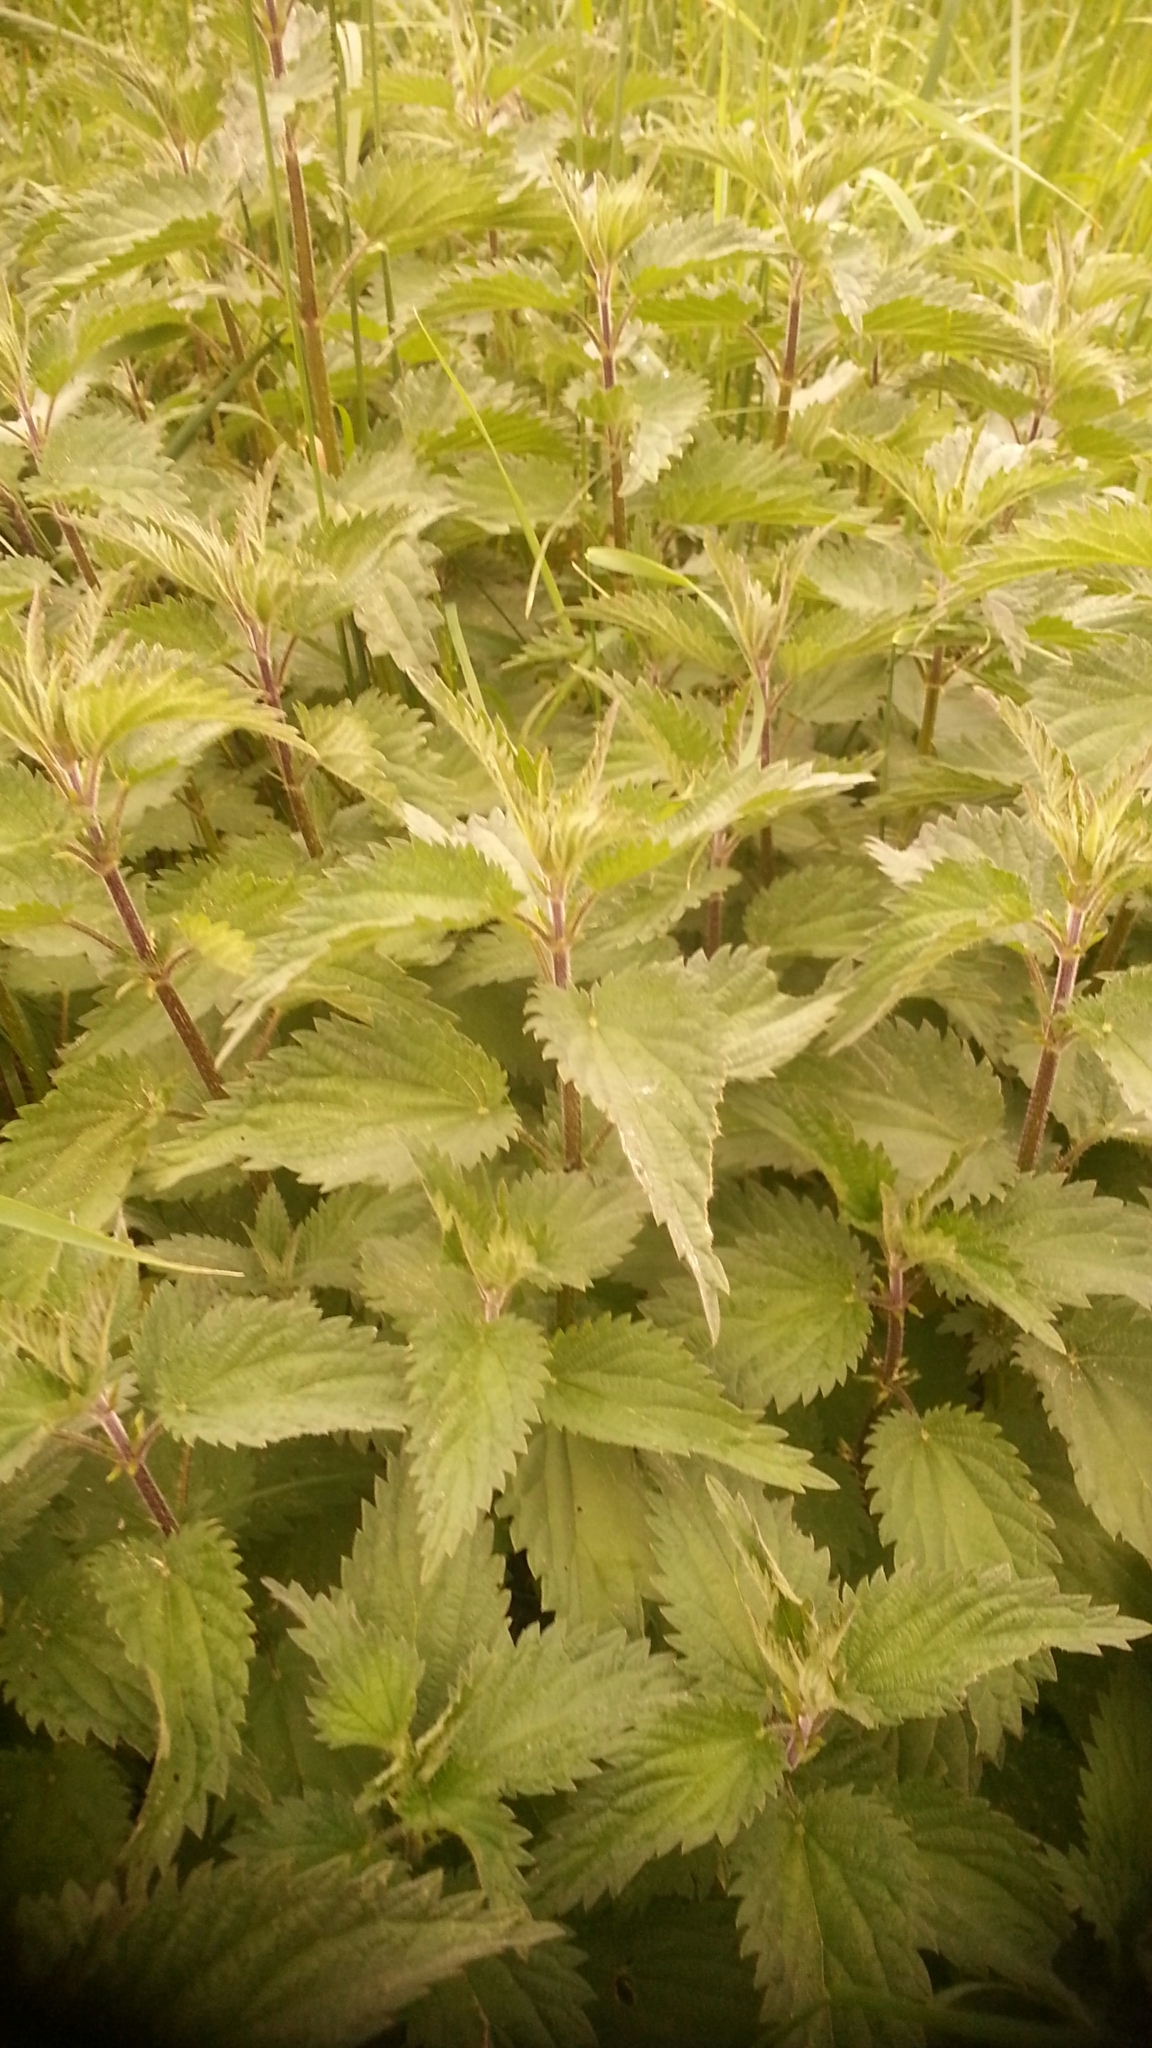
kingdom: Plantae
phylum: Tracheophyta
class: Magnoliopsida
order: Rosales
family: Urticaceae
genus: Urtica
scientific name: Urtica dioica
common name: Common nettle
